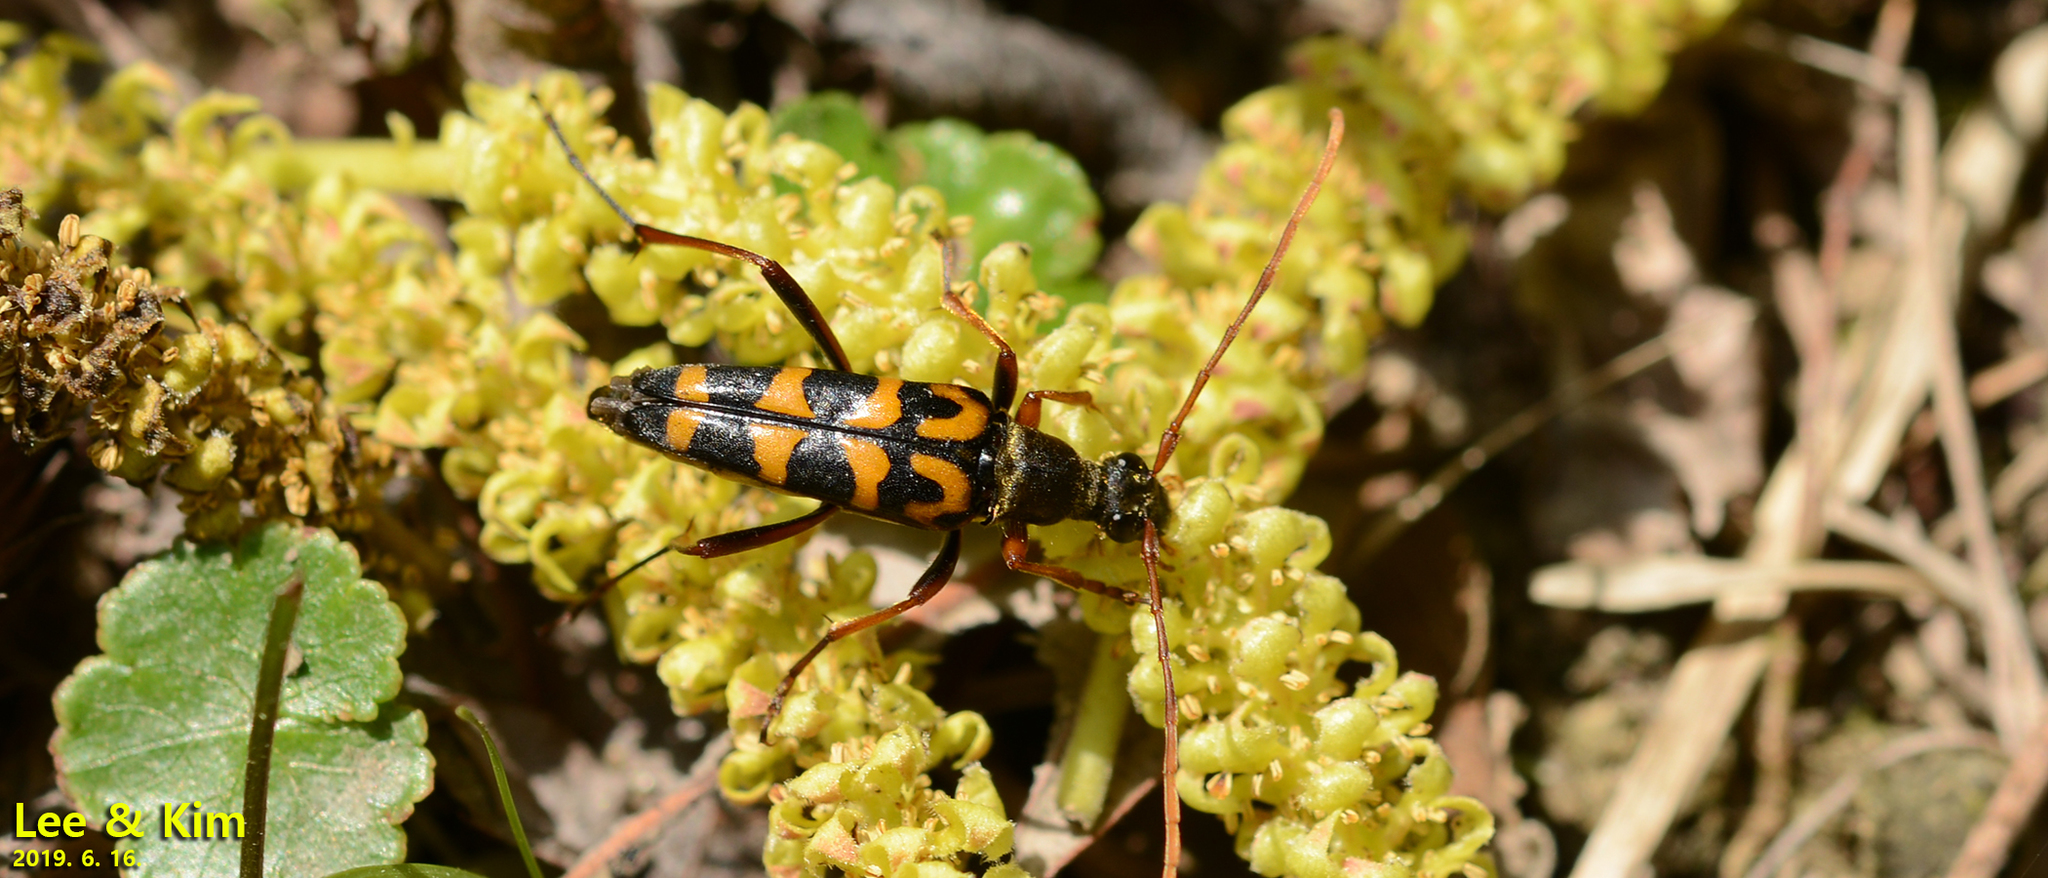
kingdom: Animalia
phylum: Arthropoda
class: Insecta
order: Coleoptera
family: Cerambycidae
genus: Leptura
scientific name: Leptura annularis
